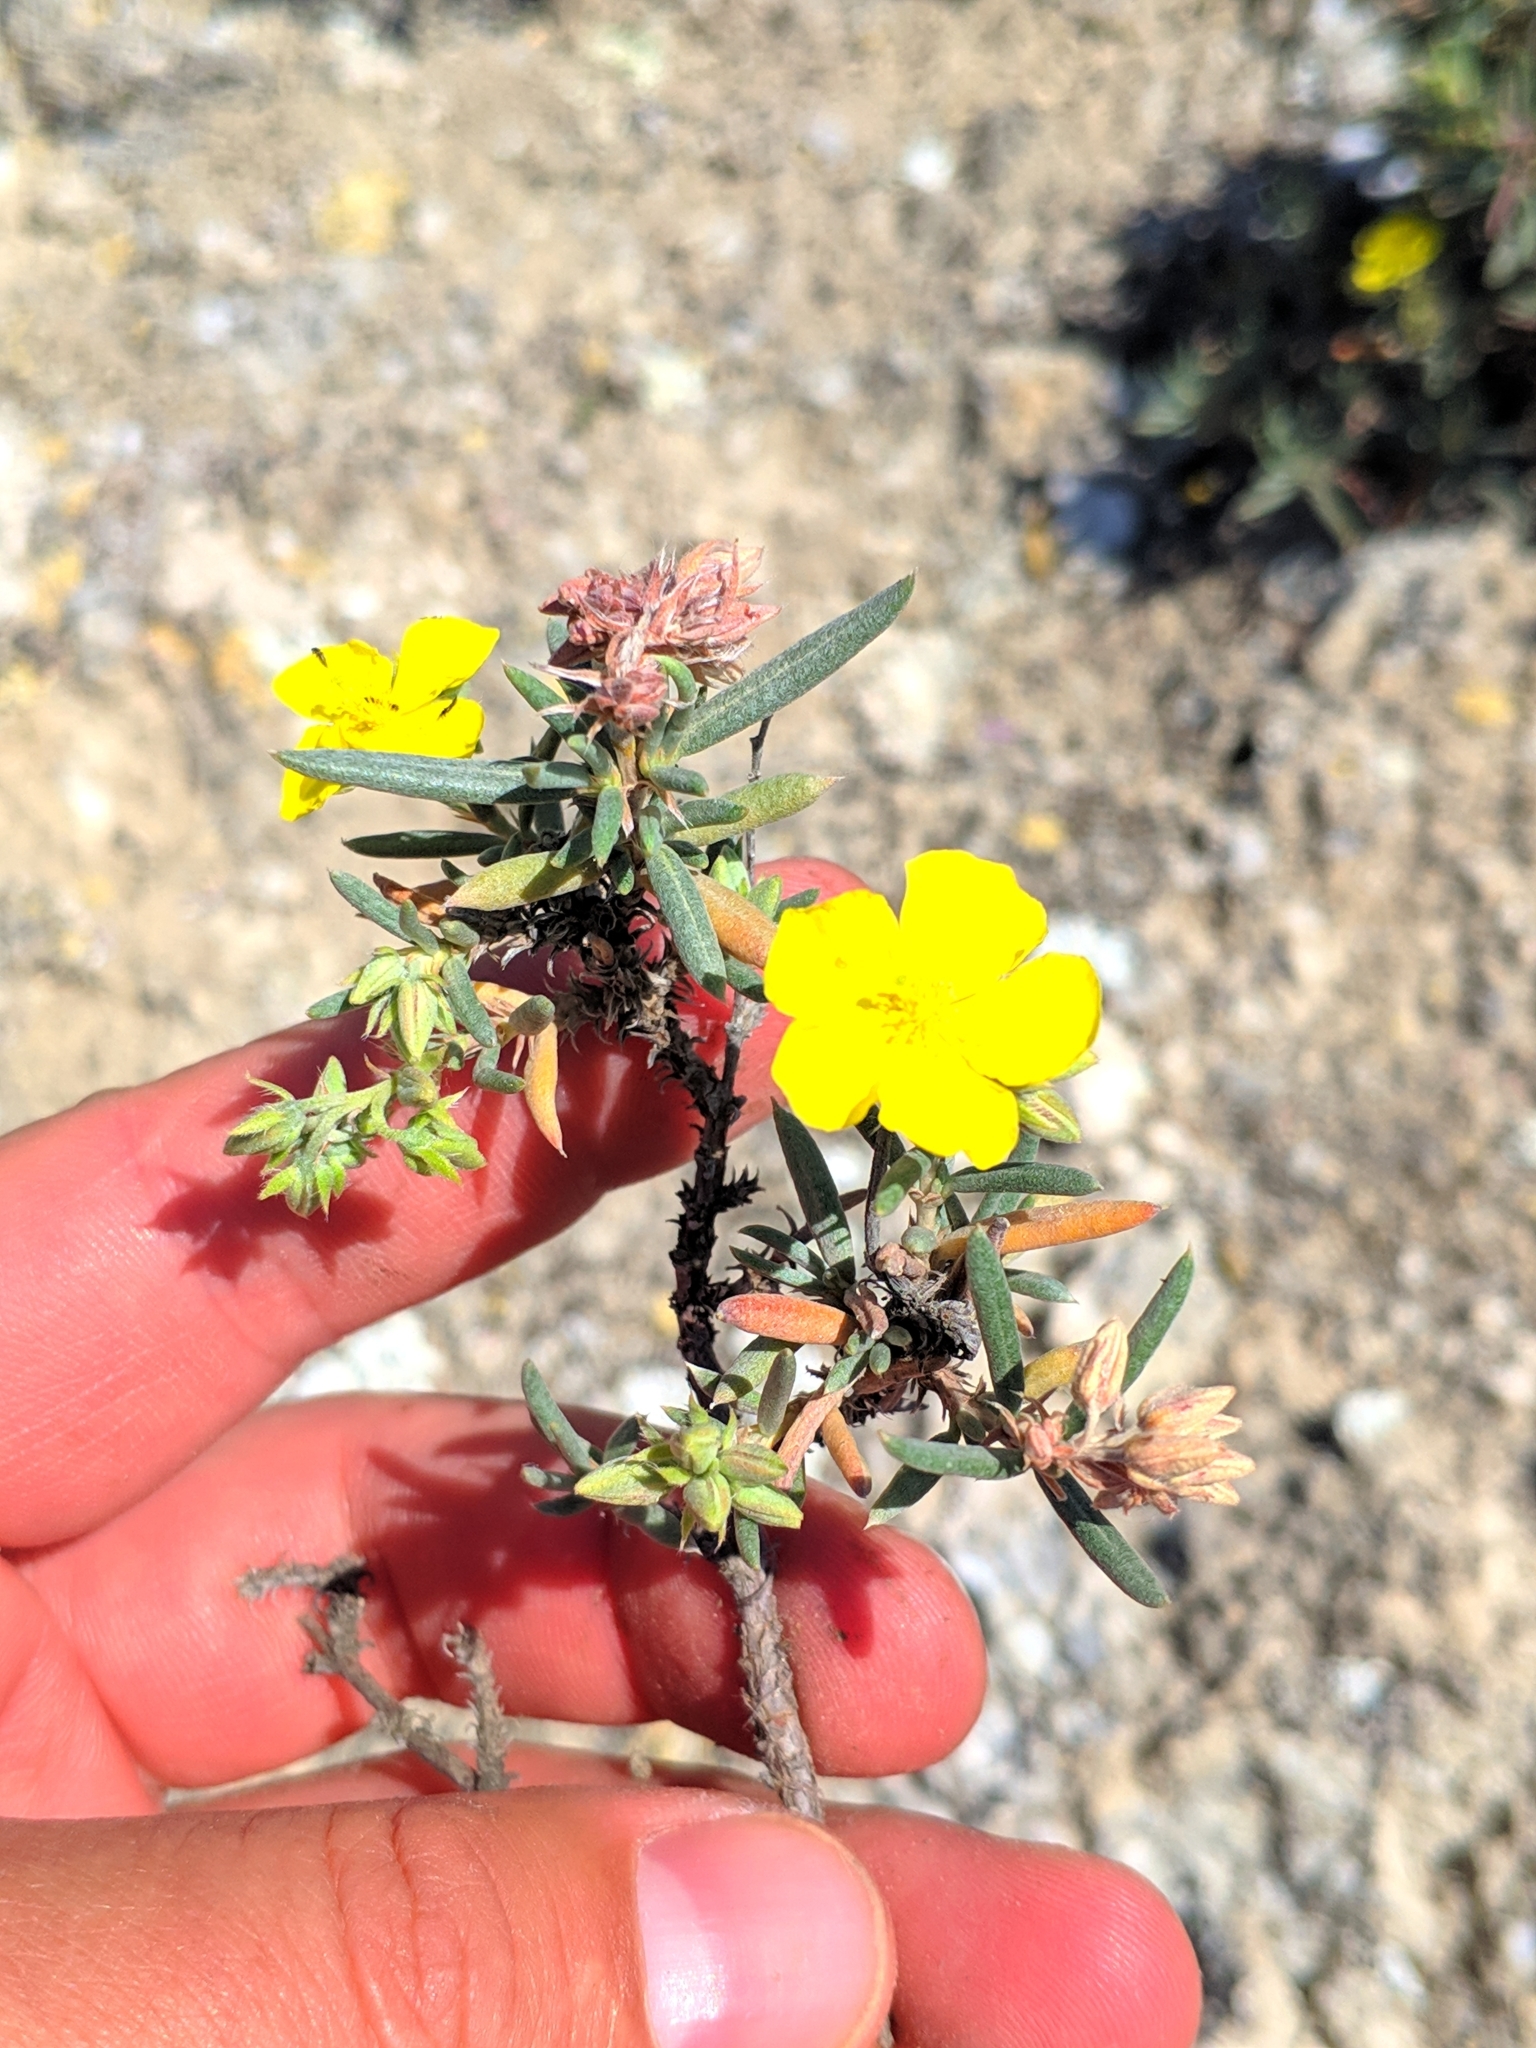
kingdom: Plantae
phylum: Tracheophyta
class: Magnoliopsida
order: Malvales
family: Cistaceae
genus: Helianthemum
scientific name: Helianthemum syriacum
